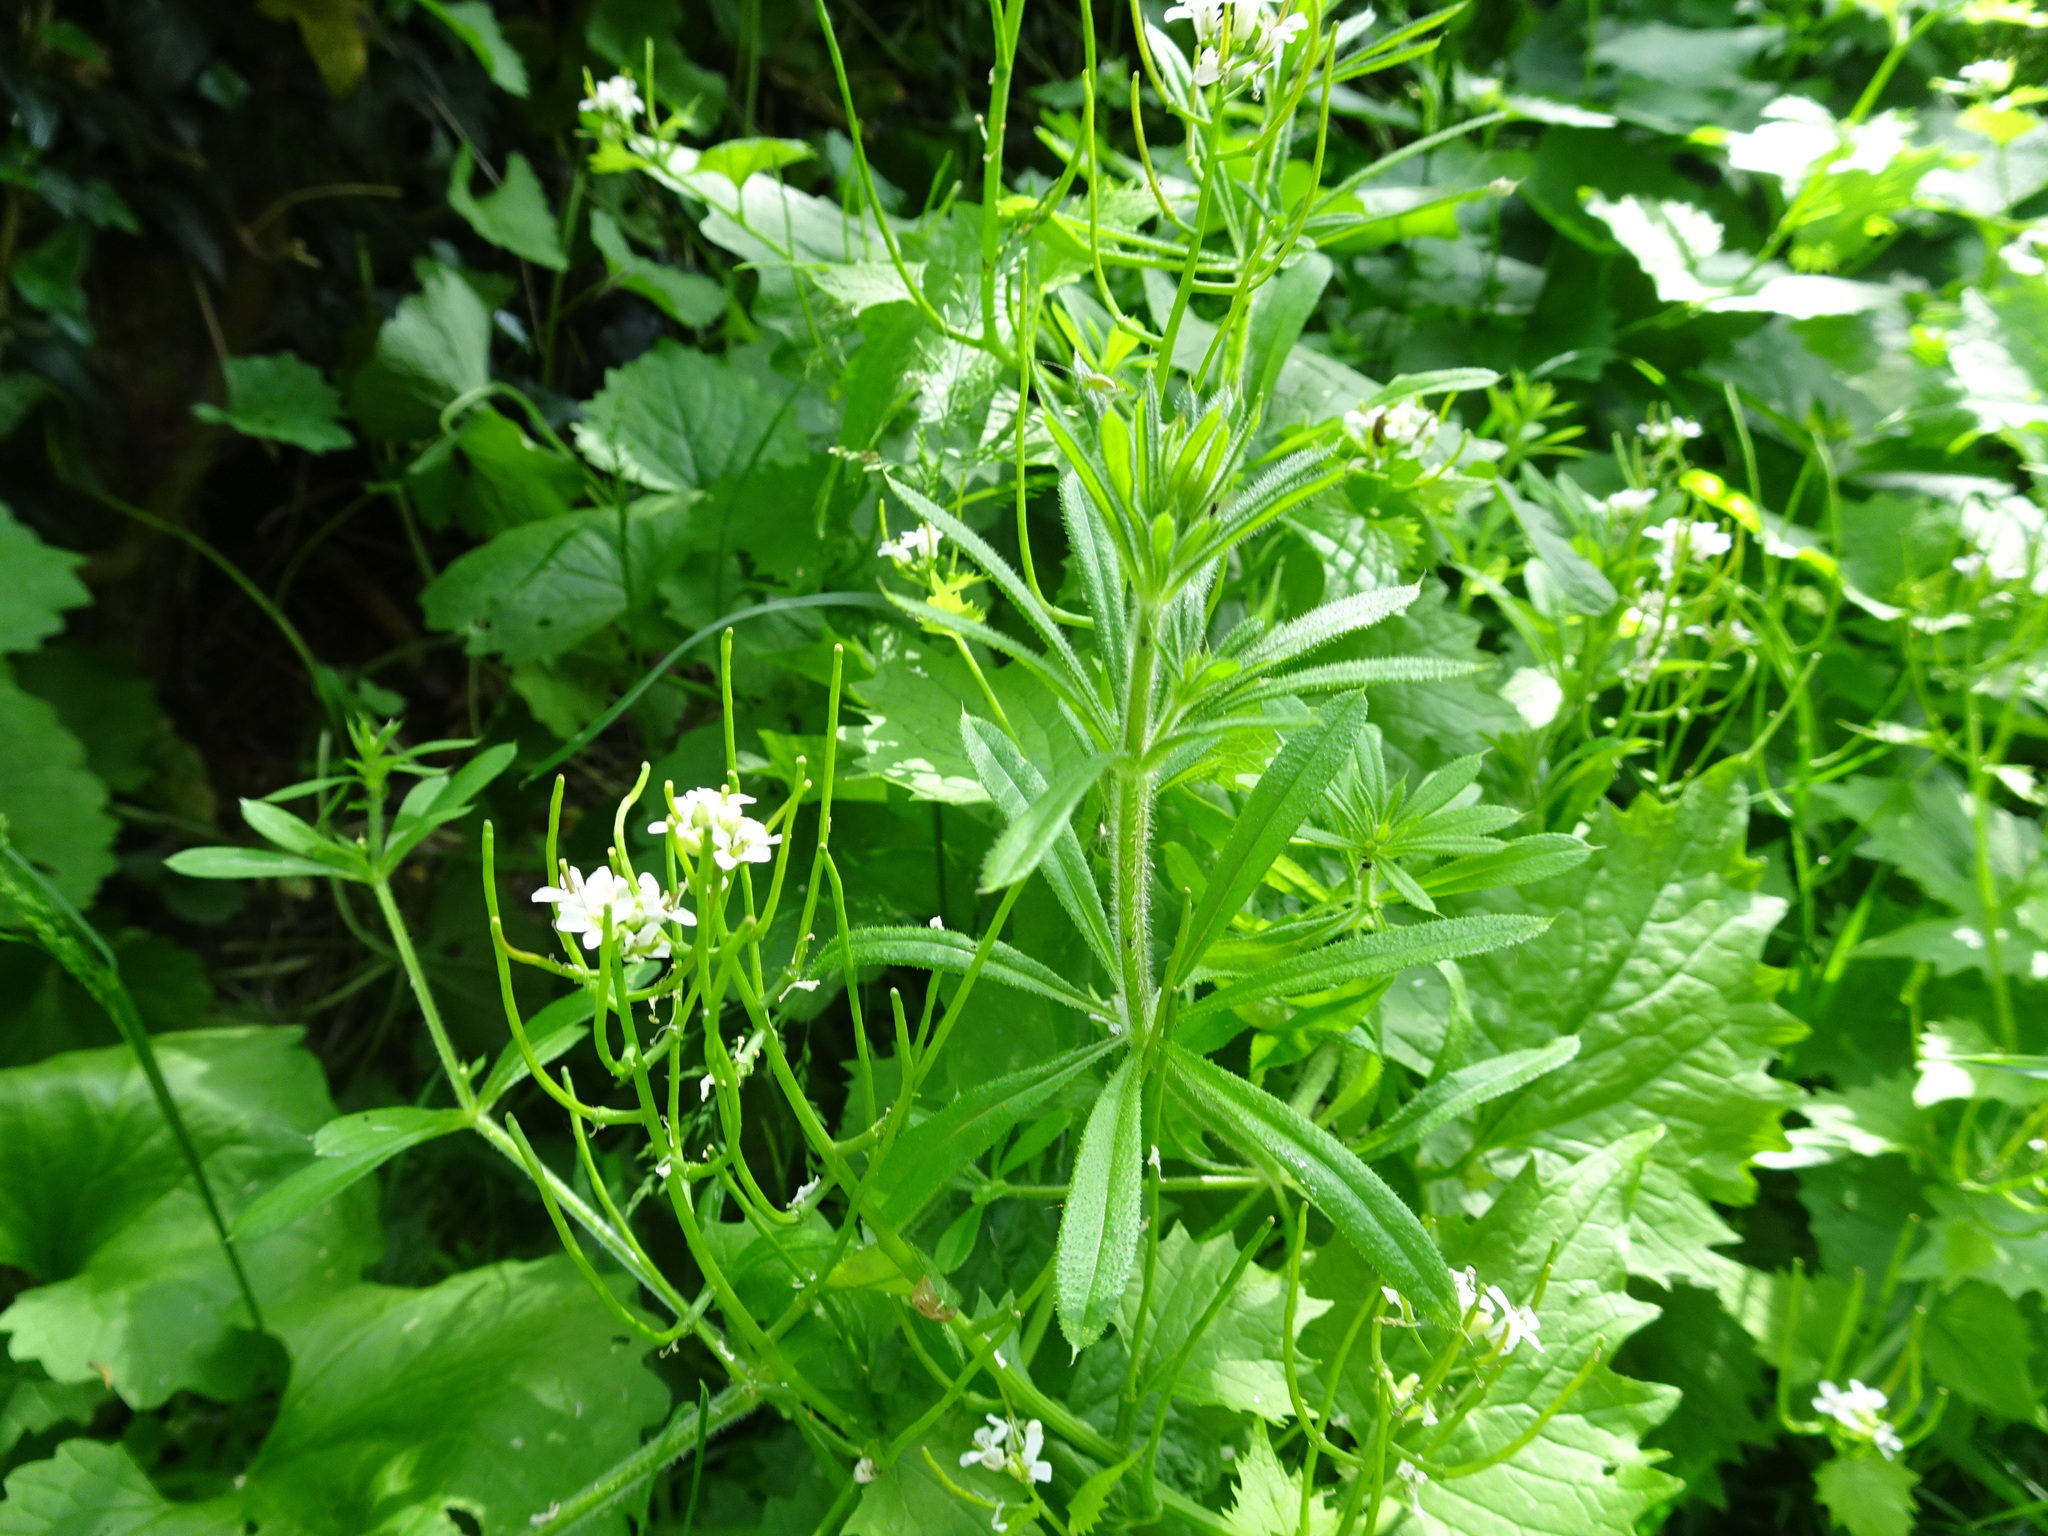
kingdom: Plantae
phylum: Tracheophyta
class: Magnoliopsida
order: Gentianales
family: Rubiaceae
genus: Galium
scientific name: Galium aparine
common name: Cleavers
